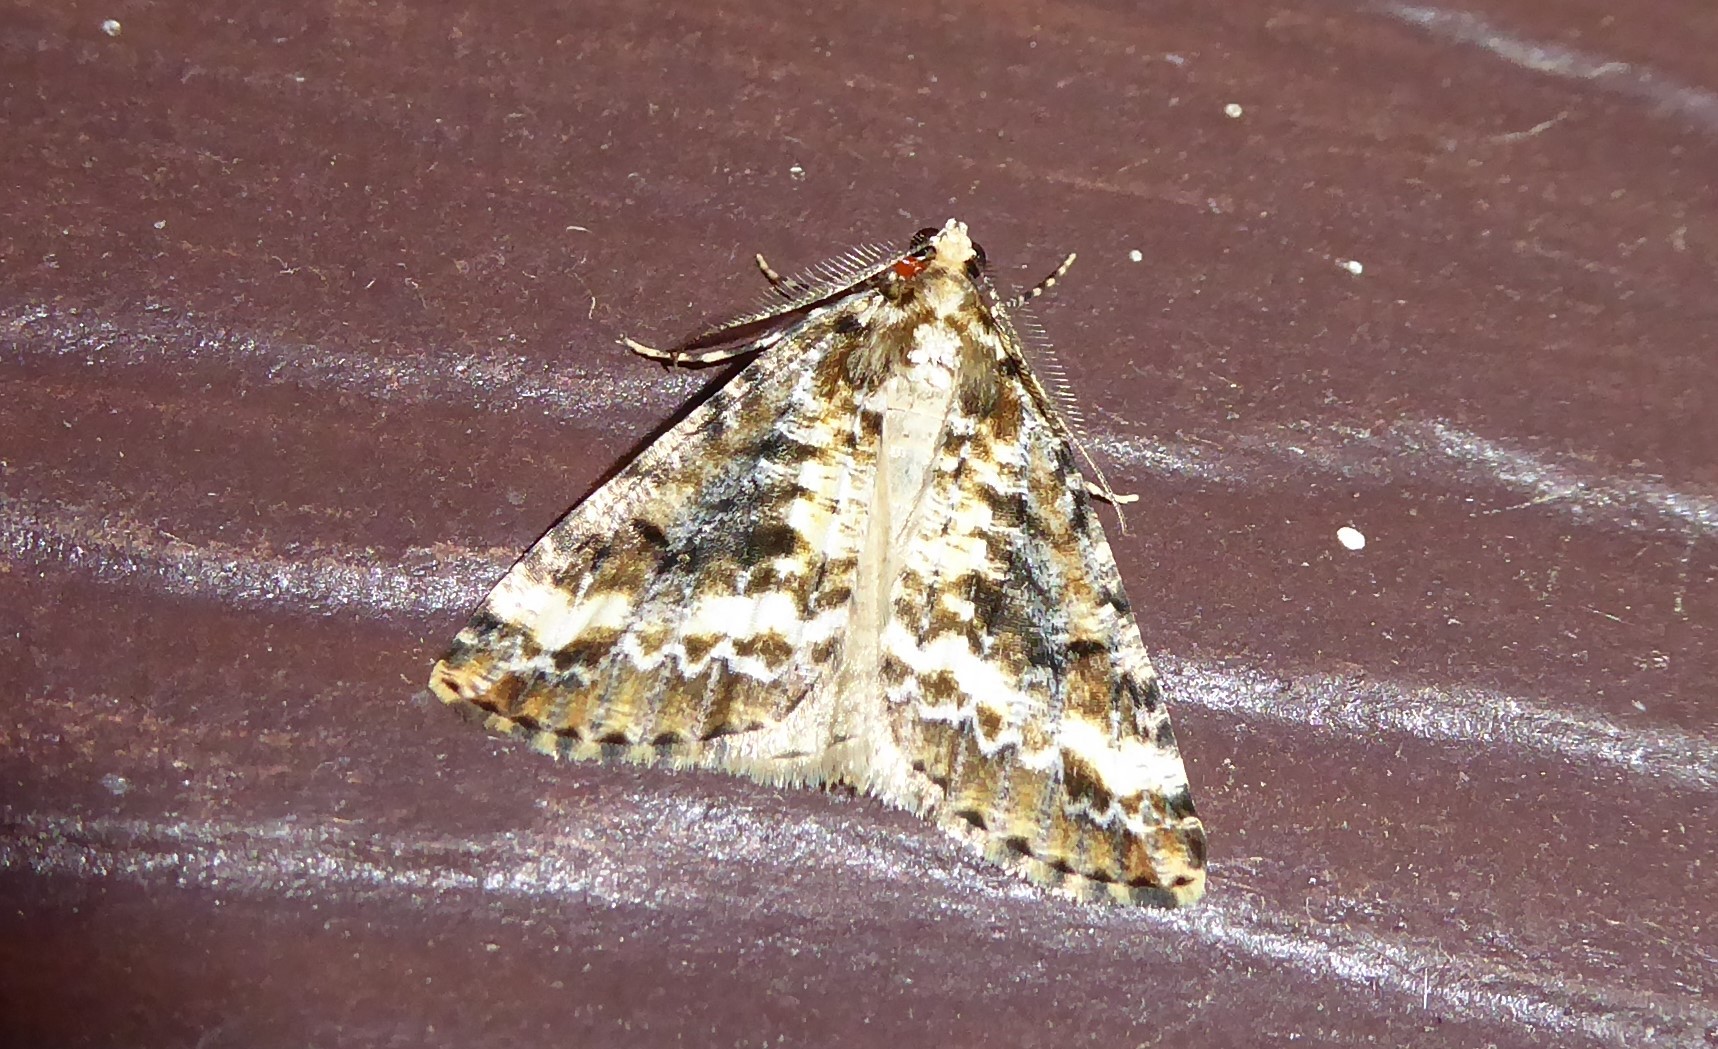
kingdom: Animalia
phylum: Arthropoda
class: Insecta
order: Lepidoptera
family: Geometridae
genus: Pseudocoremia
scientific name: Pseudocoremia leucelaea
